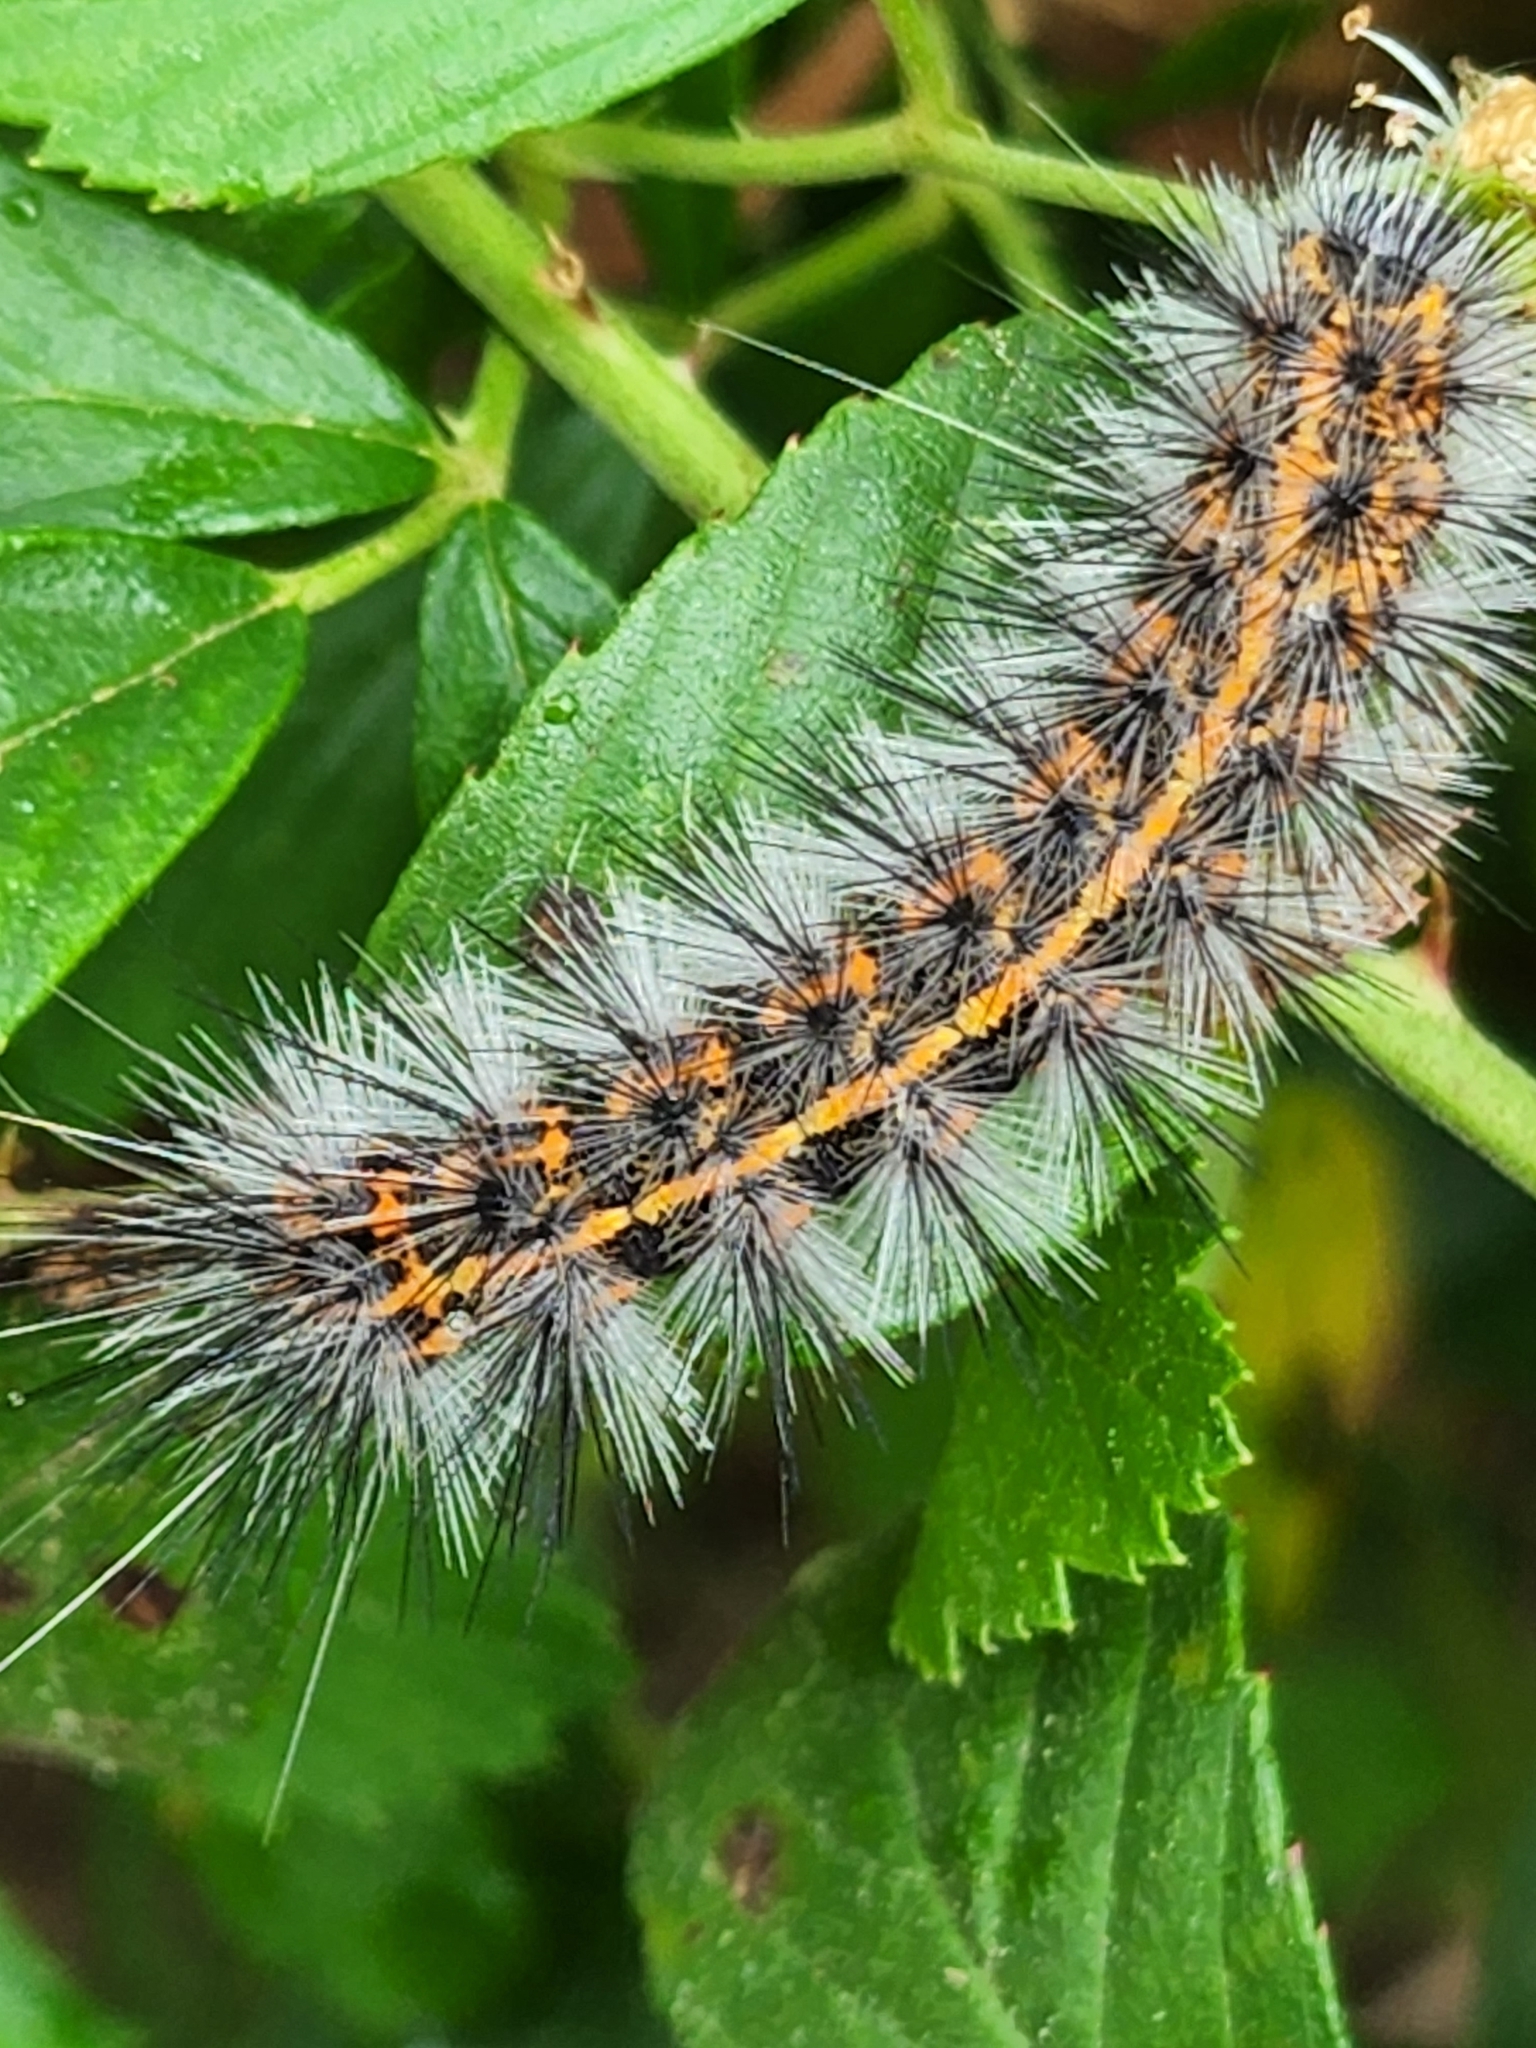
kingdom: Animalia
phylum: Arthropoda
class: Insecta
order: Lepidoptera
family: Erebidae
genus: Spilosoma
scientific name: Spilosoma dubia
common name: Dubious tiger moth
